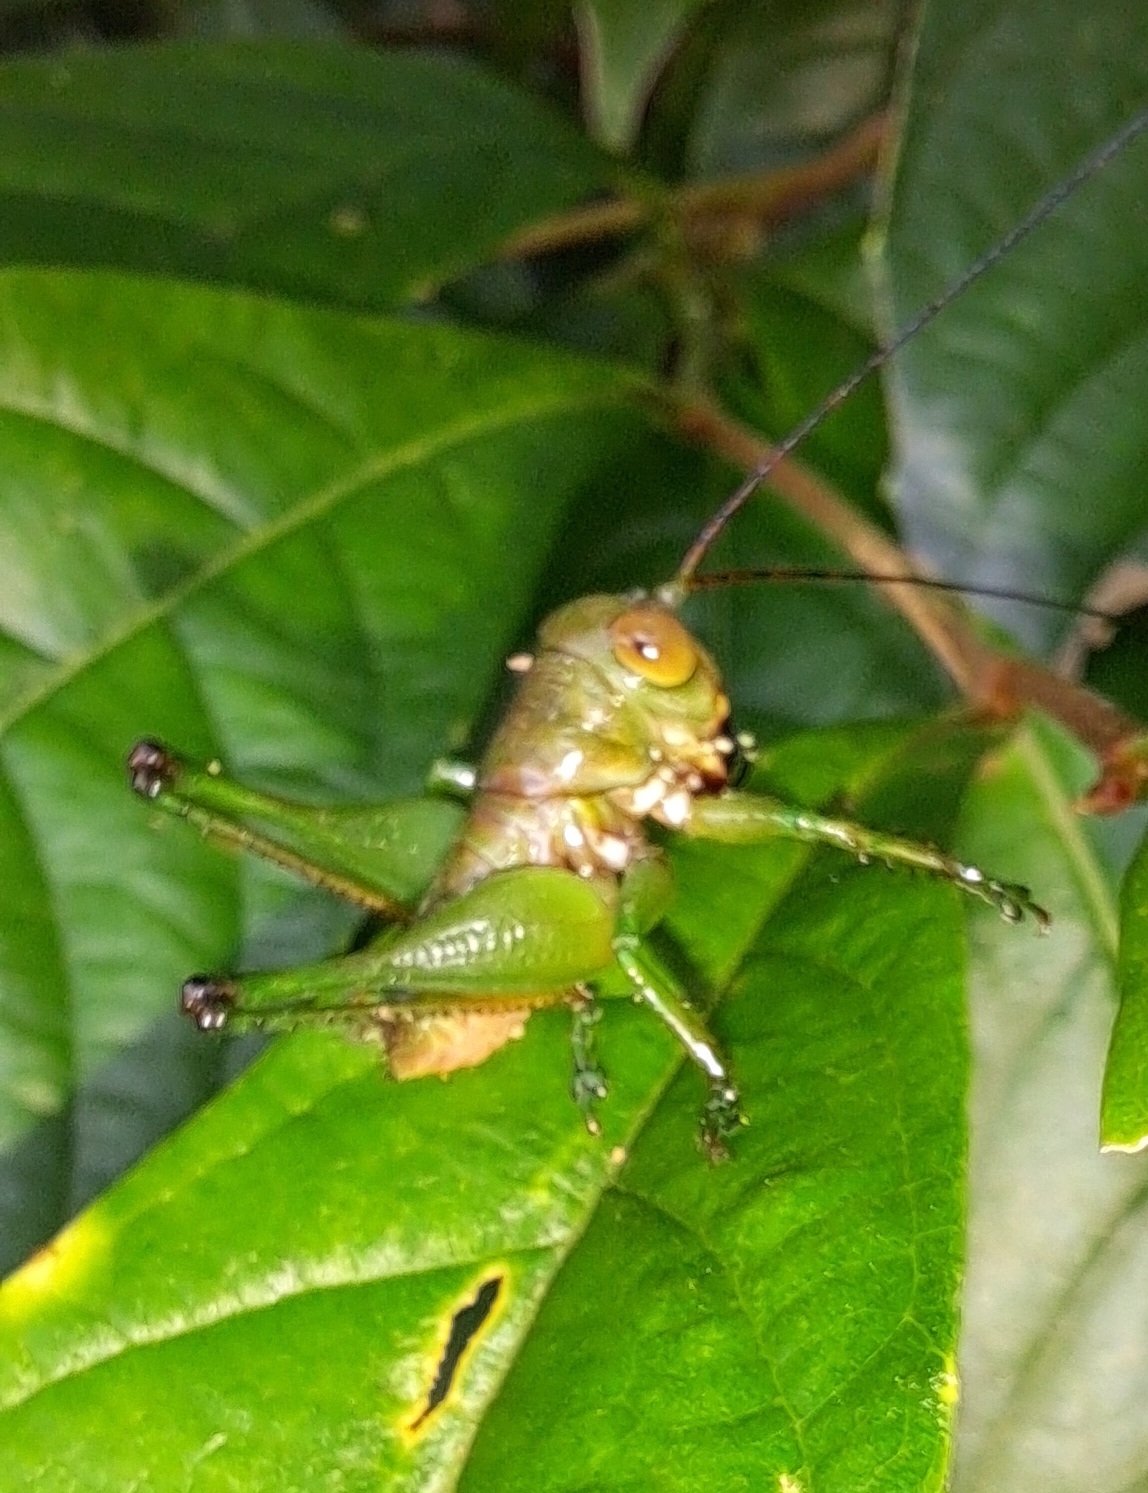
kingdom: Animalia
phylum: Arthropoda
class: Insecta
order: Orthoptera
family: Tettigoniidae
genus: Lipotactes
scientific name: Lipotactes karnyi
